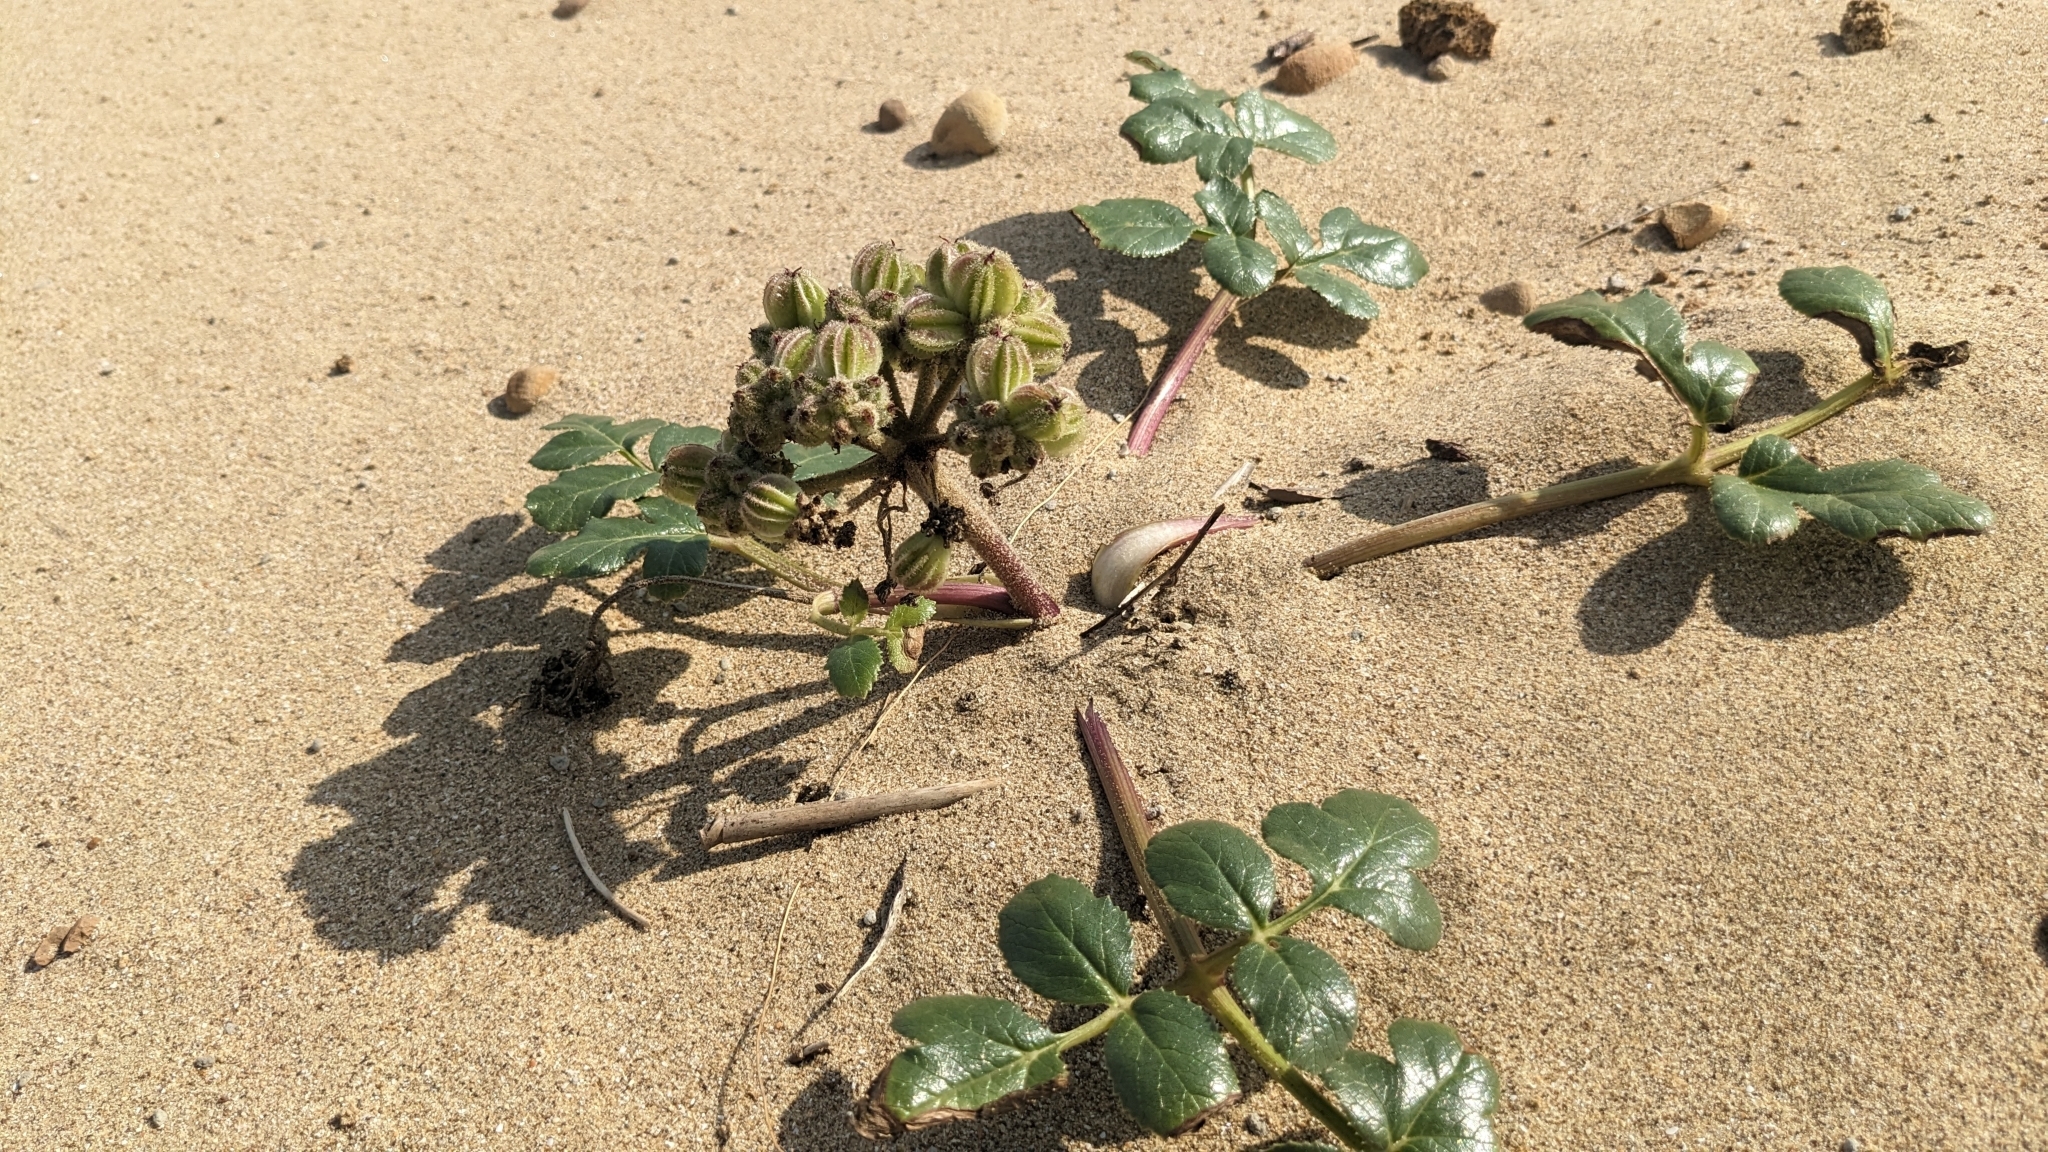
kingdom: Plantae
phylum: Tracheophyta
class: Magnoliopsida
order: Apiales
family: Apiaceae
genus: Glehnia
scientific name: Glehnia littoralis
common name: Beach silvertop
